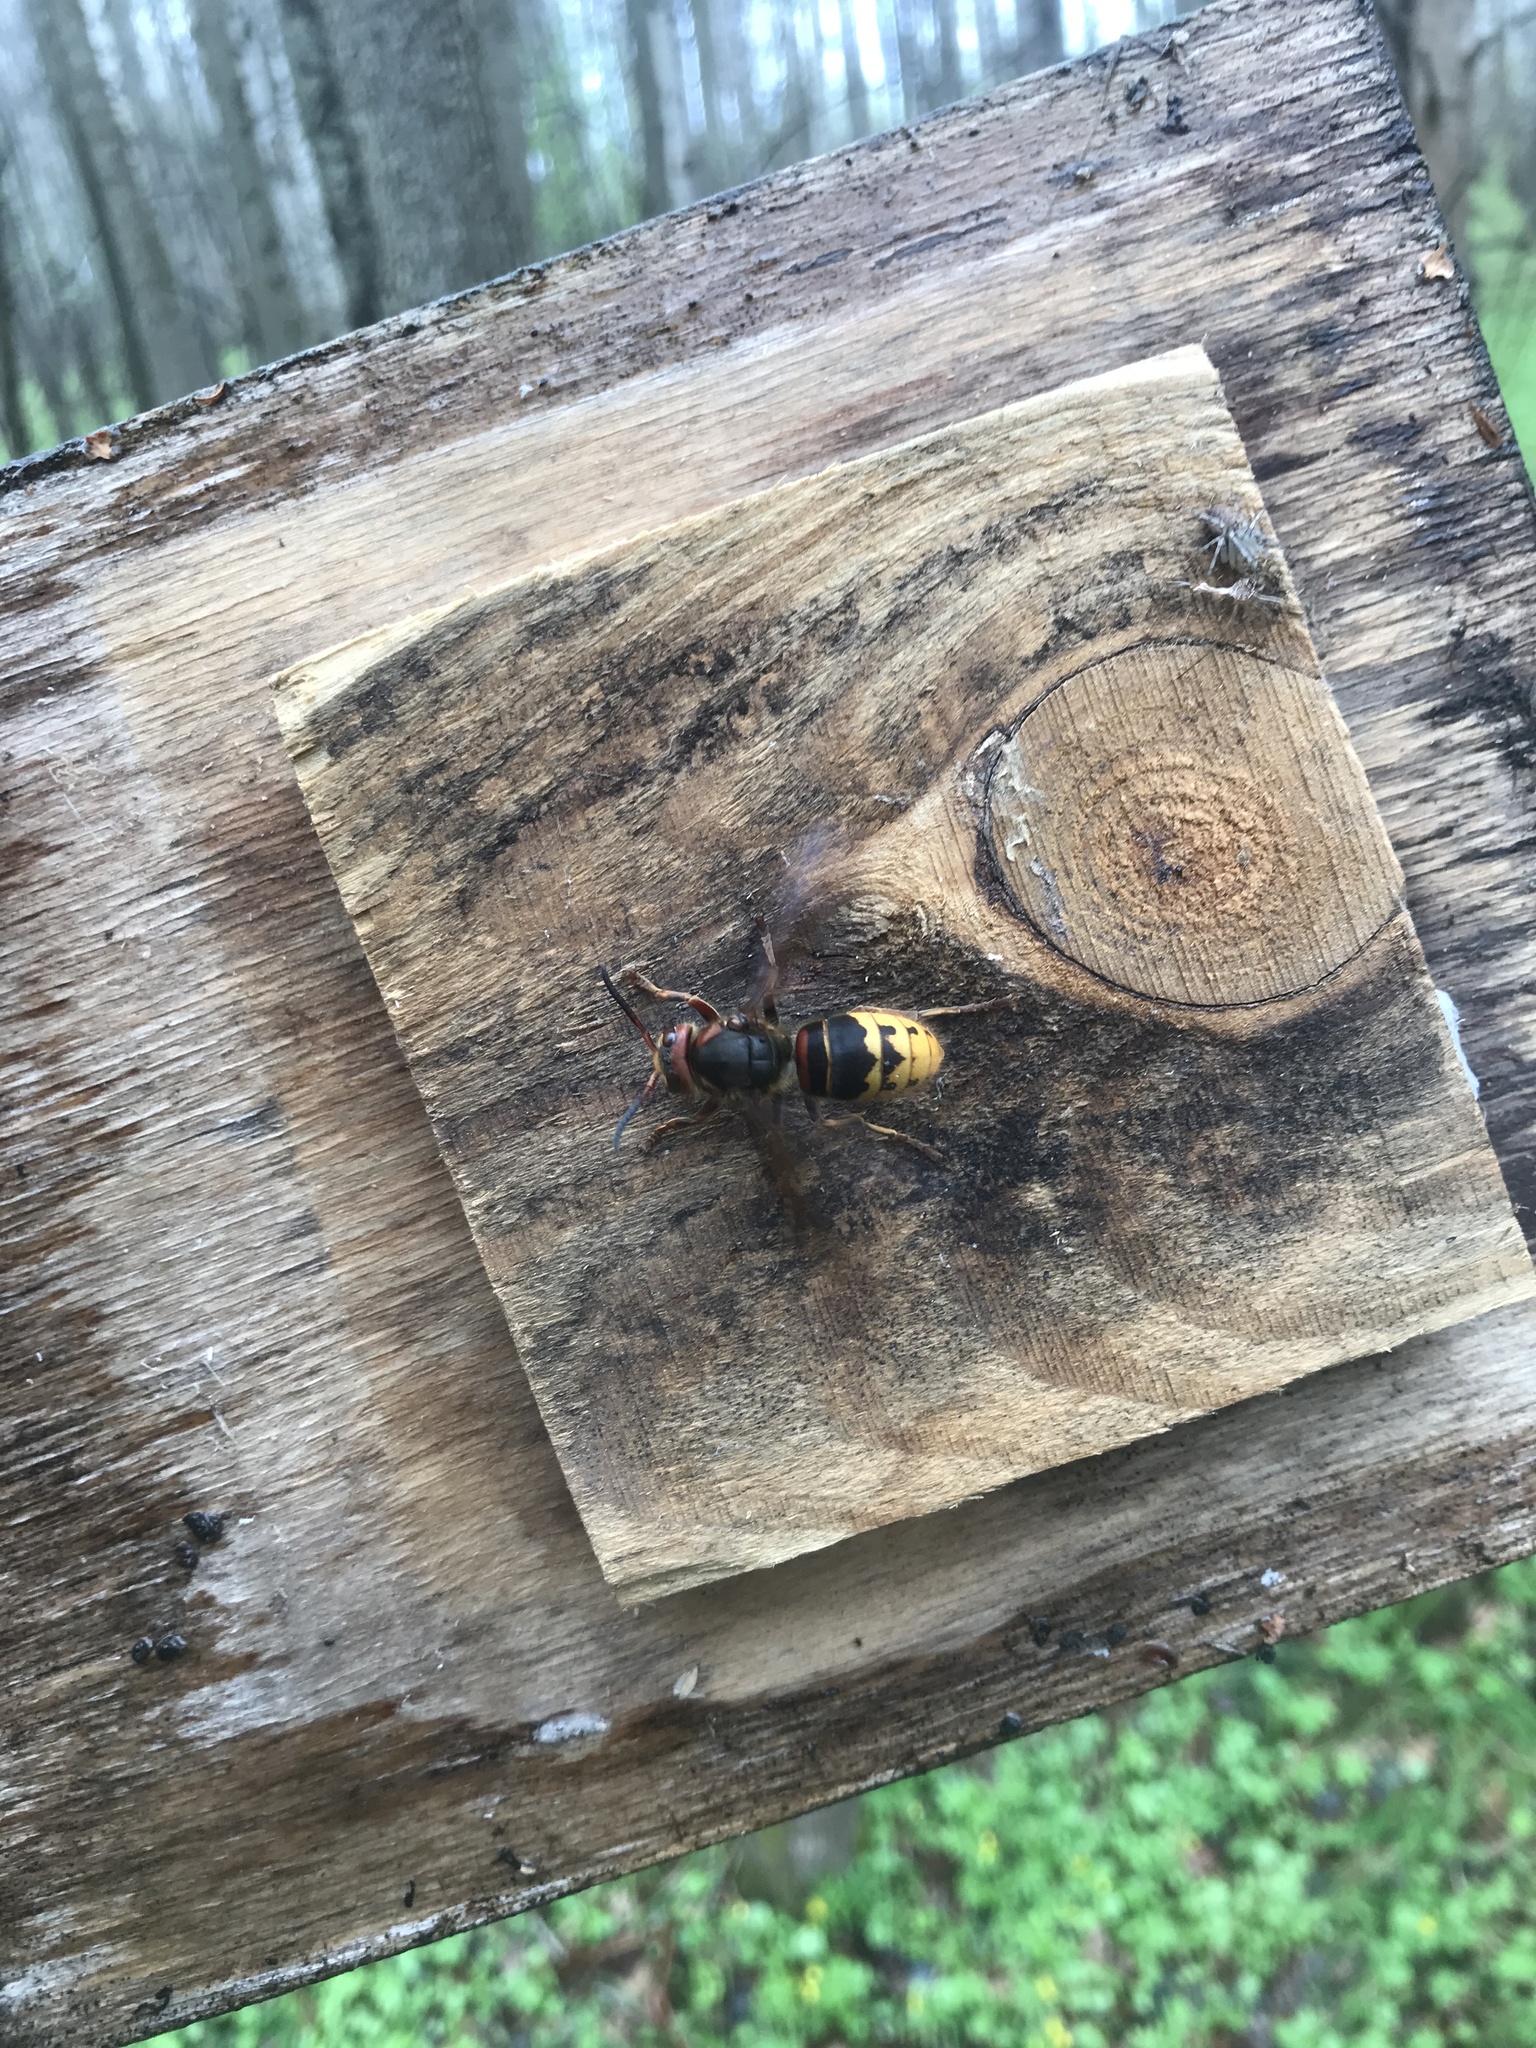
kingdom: Animalia
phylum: Arthropoda
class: Insecta
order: Hymenoptera
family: Vespidae
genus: Vespa
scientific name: Vespa crabro
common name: Hornet
